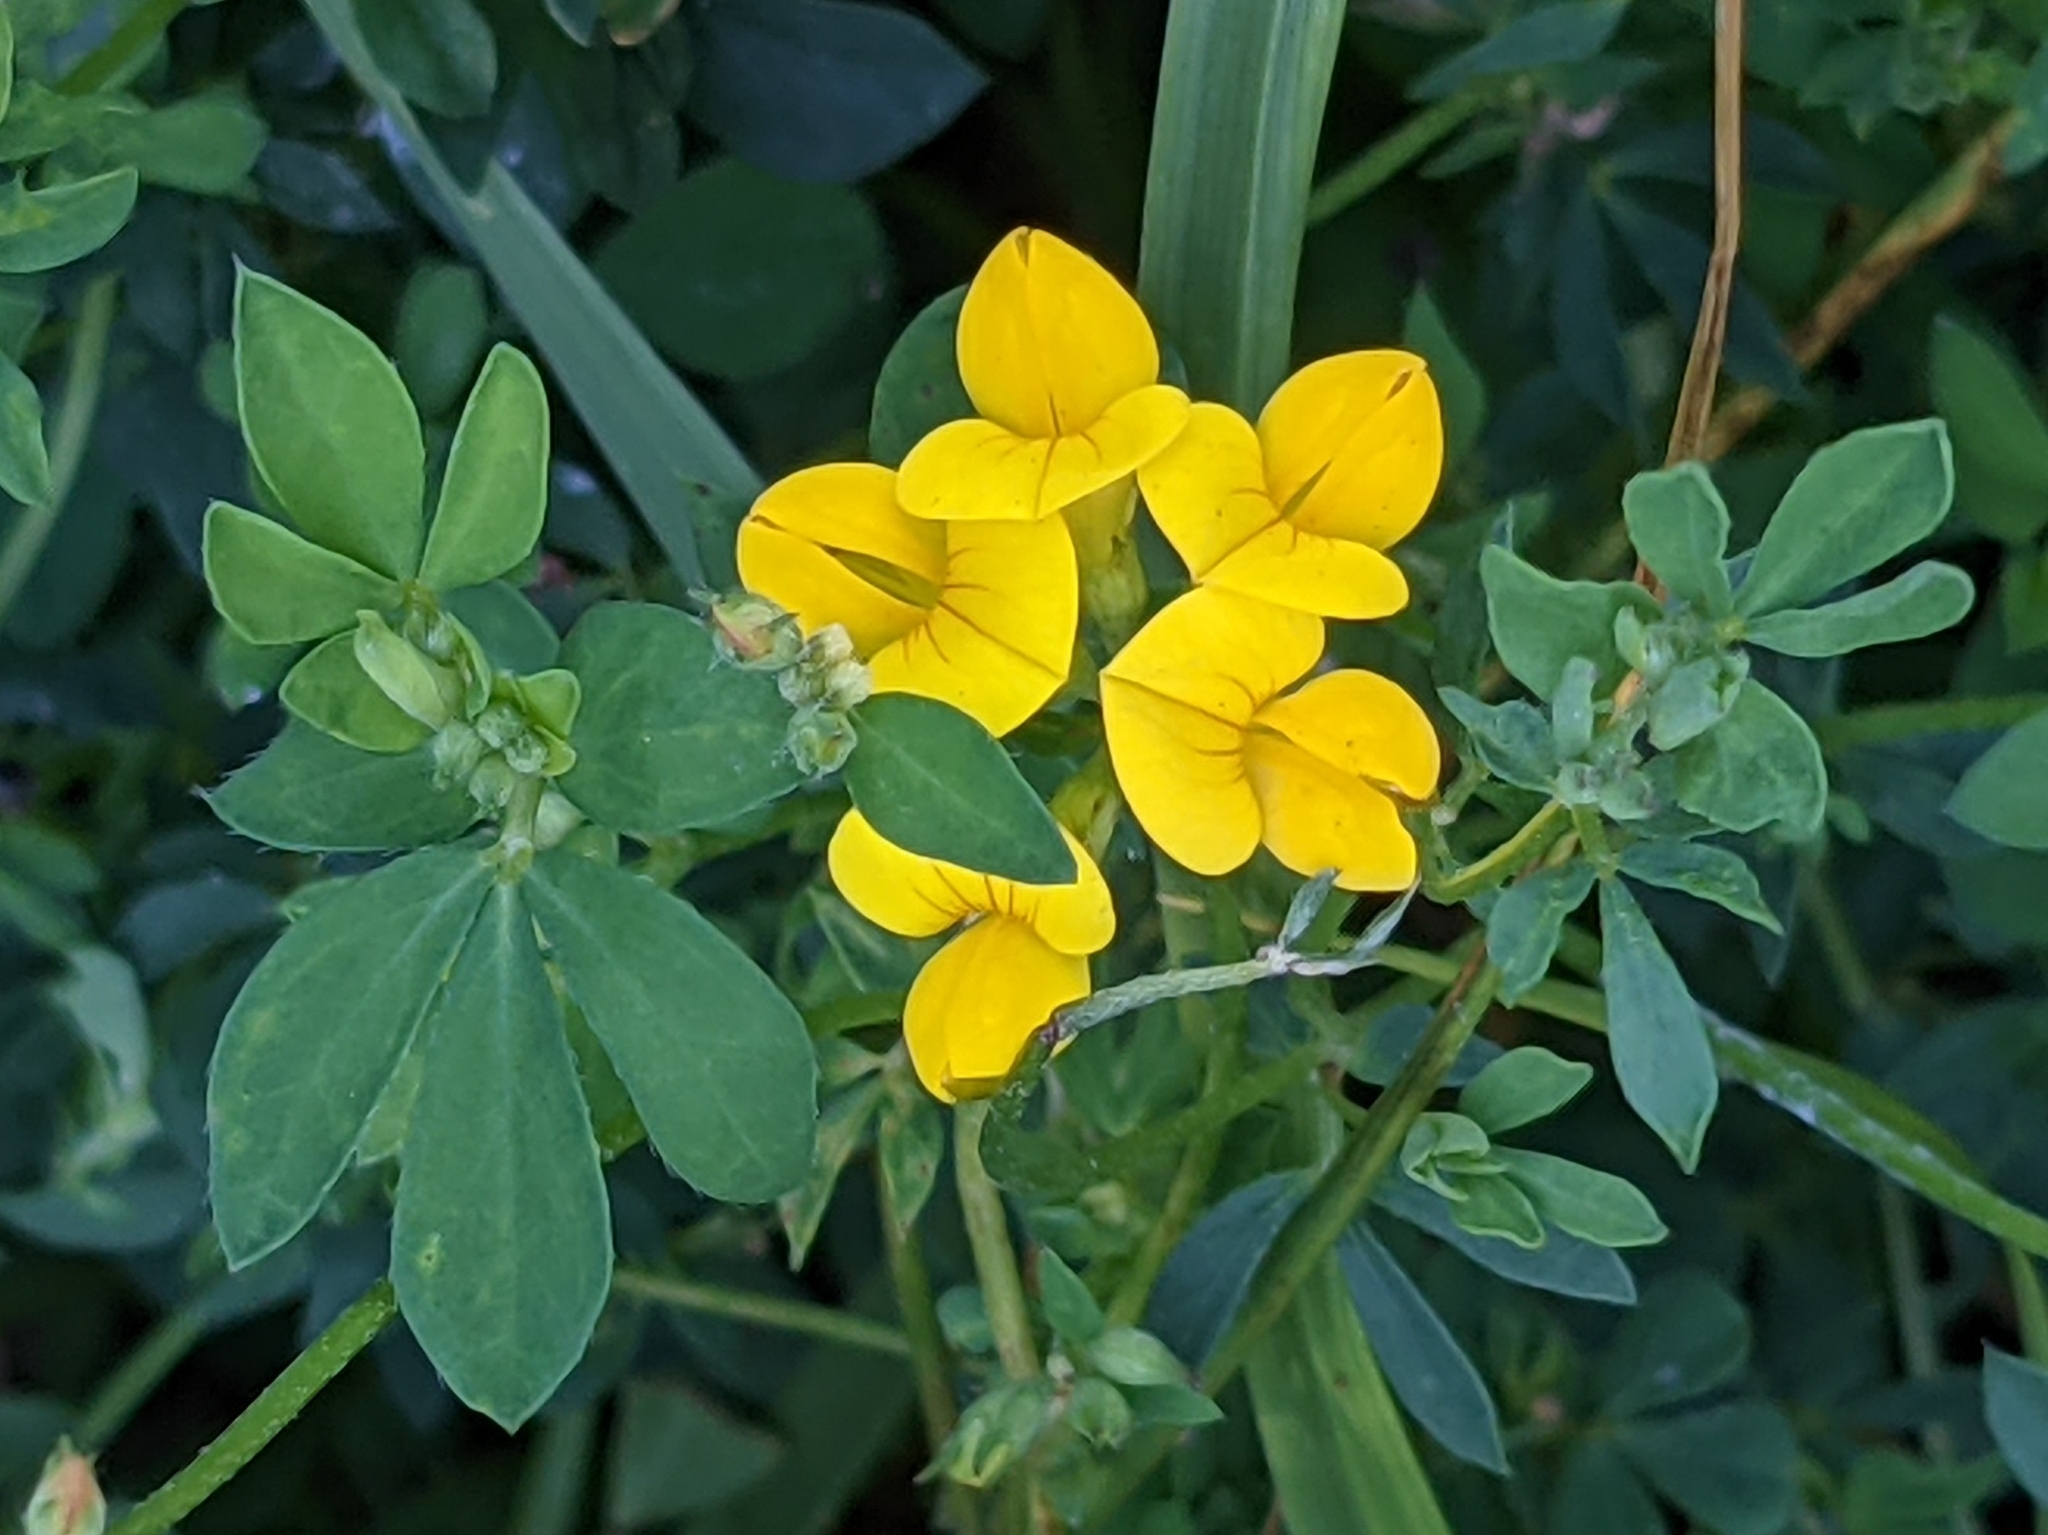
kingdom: Plantae
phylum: Tracheophyta
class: Magnoliopsida
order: Fabales
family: Fabaceae
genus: Lotus
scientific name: Lotus corniculatus
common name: Common bird's-foot-trefoil
